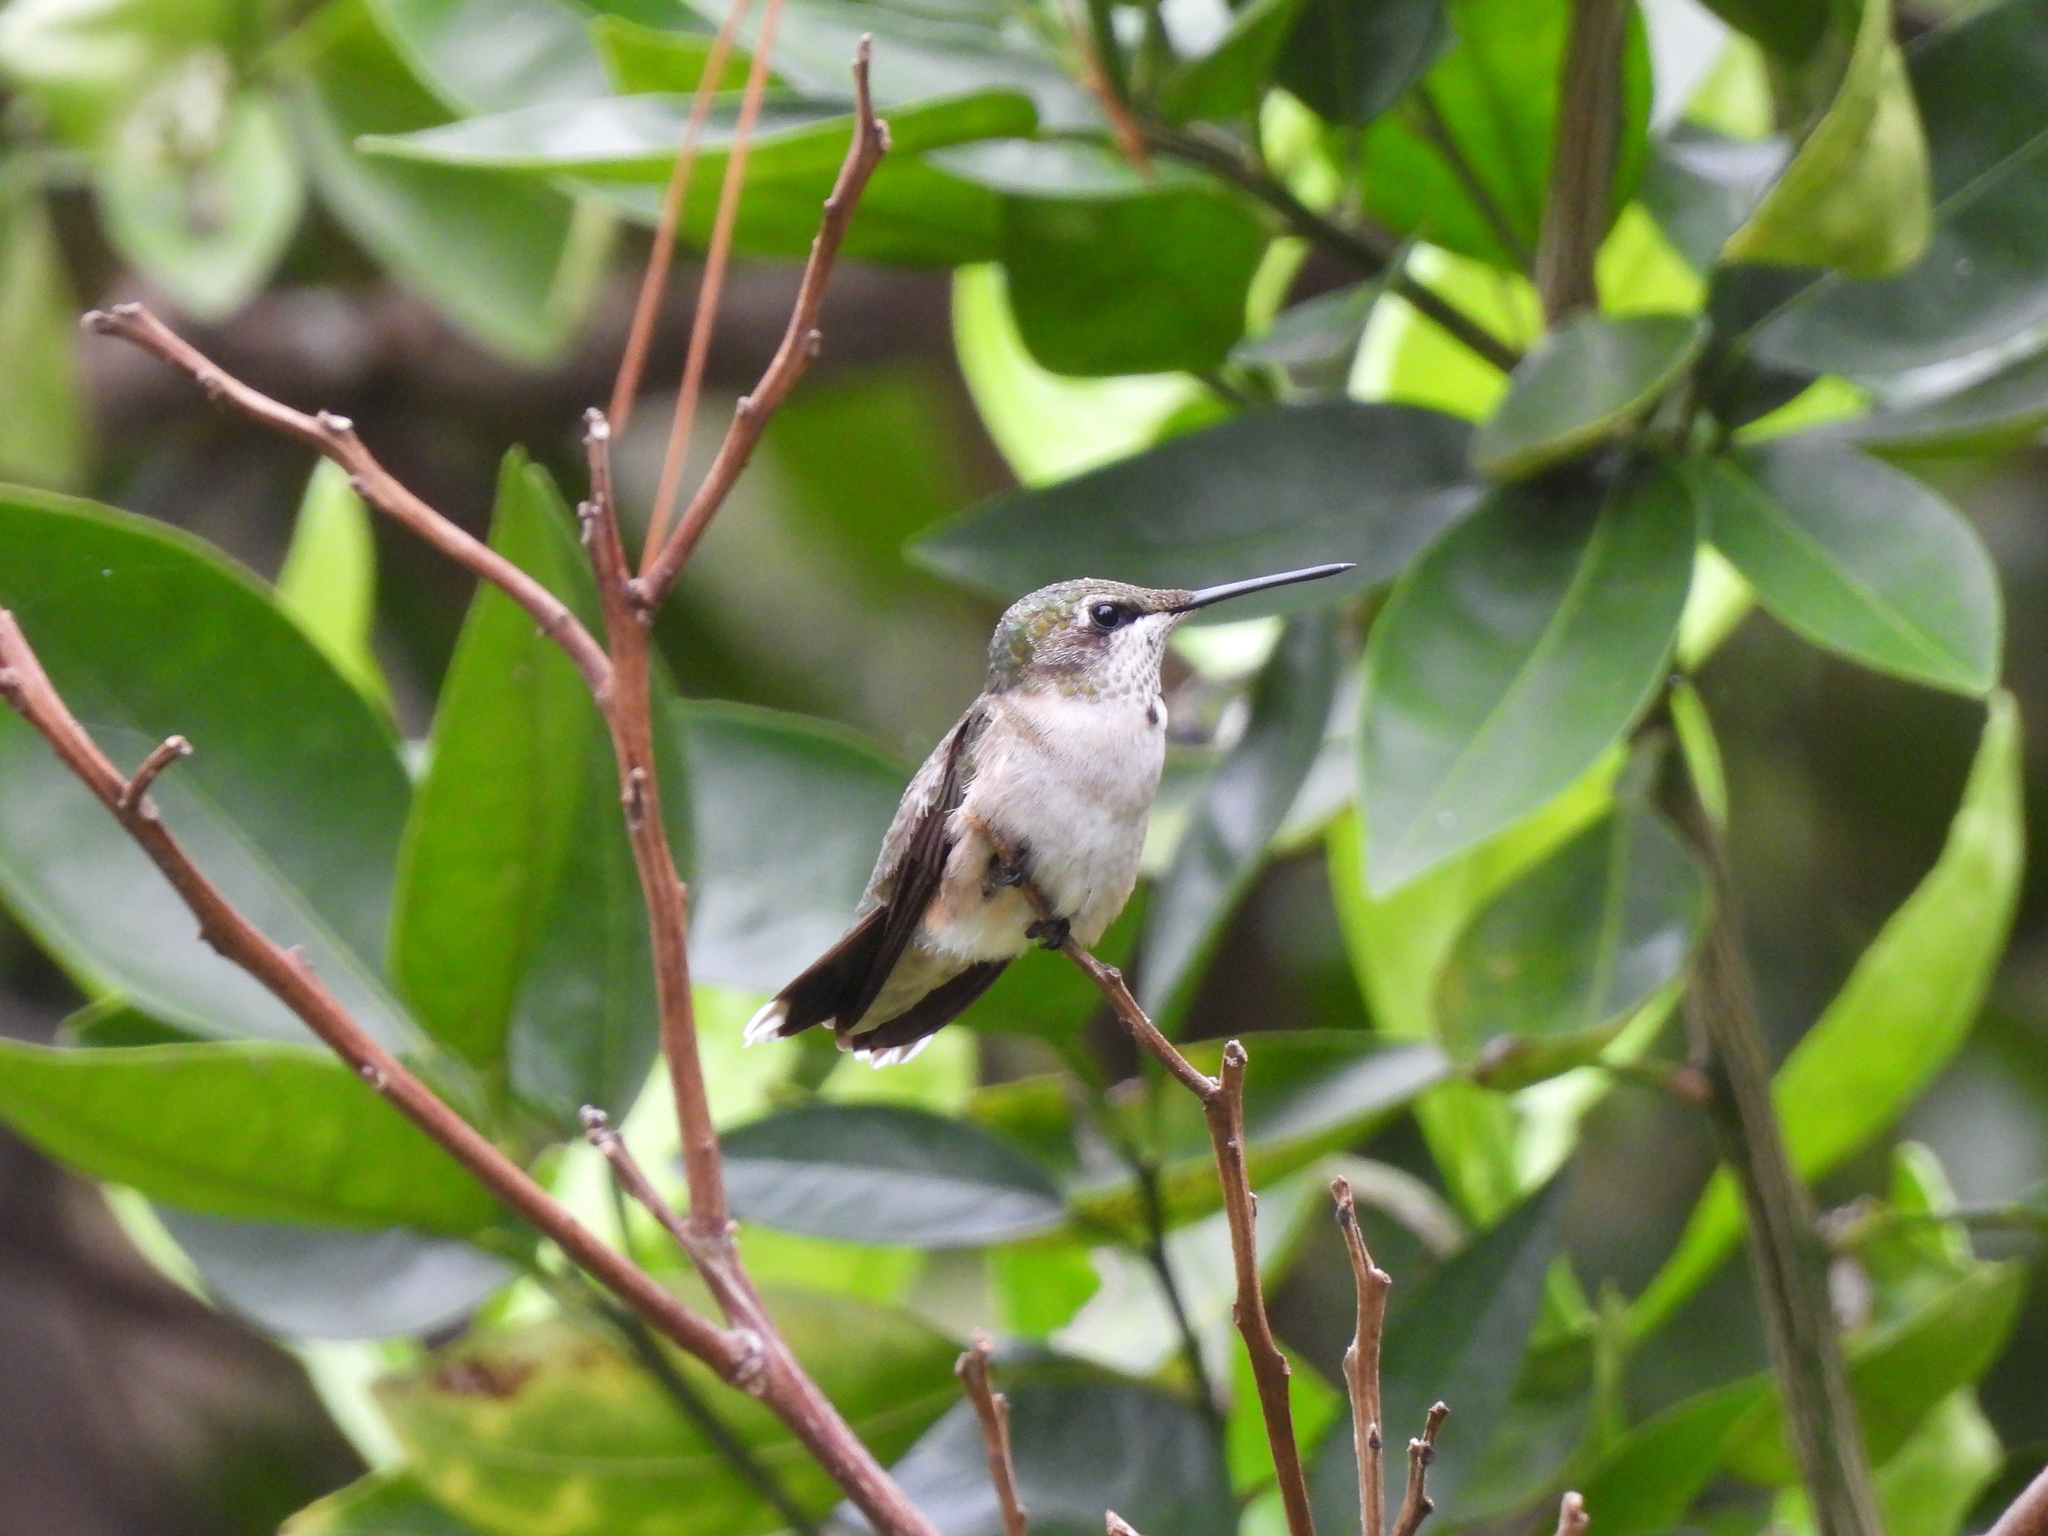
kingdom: Animalia
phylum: Chordata
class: Aves
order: Apodiformes
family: Trochilidae
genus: Archilochus
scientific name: Archilochus colubris
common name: Ruby-throated hummingbird
